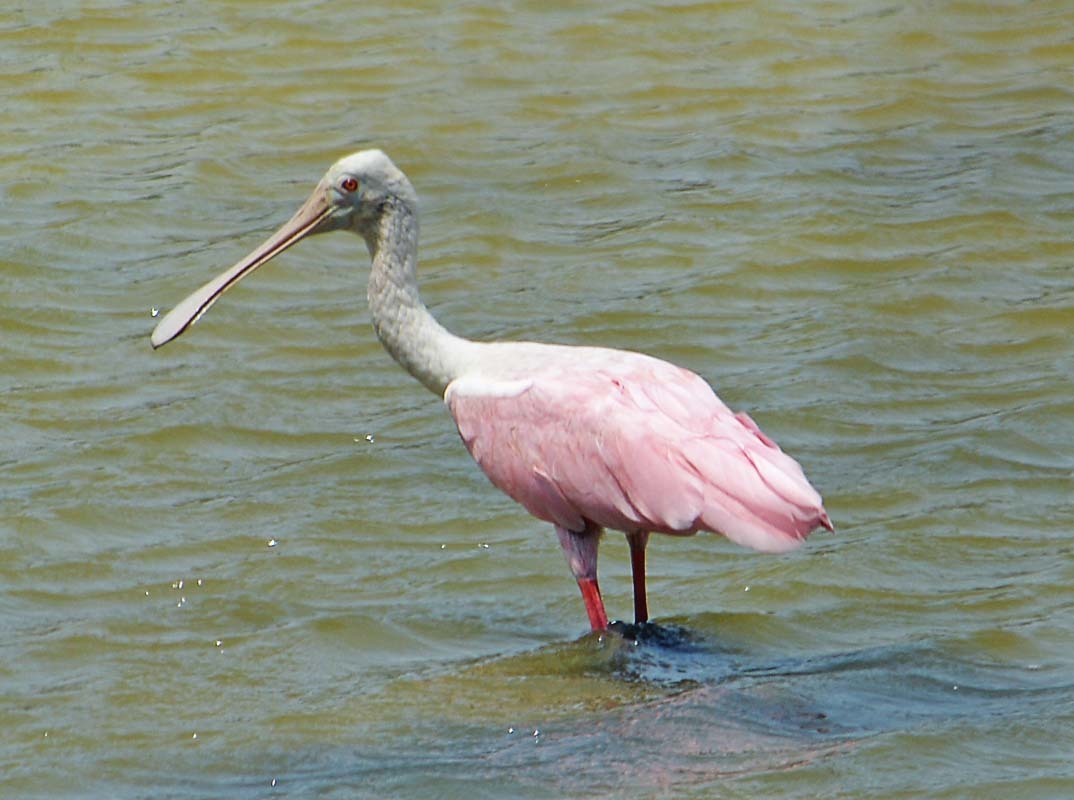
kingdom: Animalia
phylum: Chordata
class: Aves
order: Pelecaniformes
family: Threskiornithidae
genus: Platalea
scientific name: Platalea ajaja
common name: Roseate spoonbill
